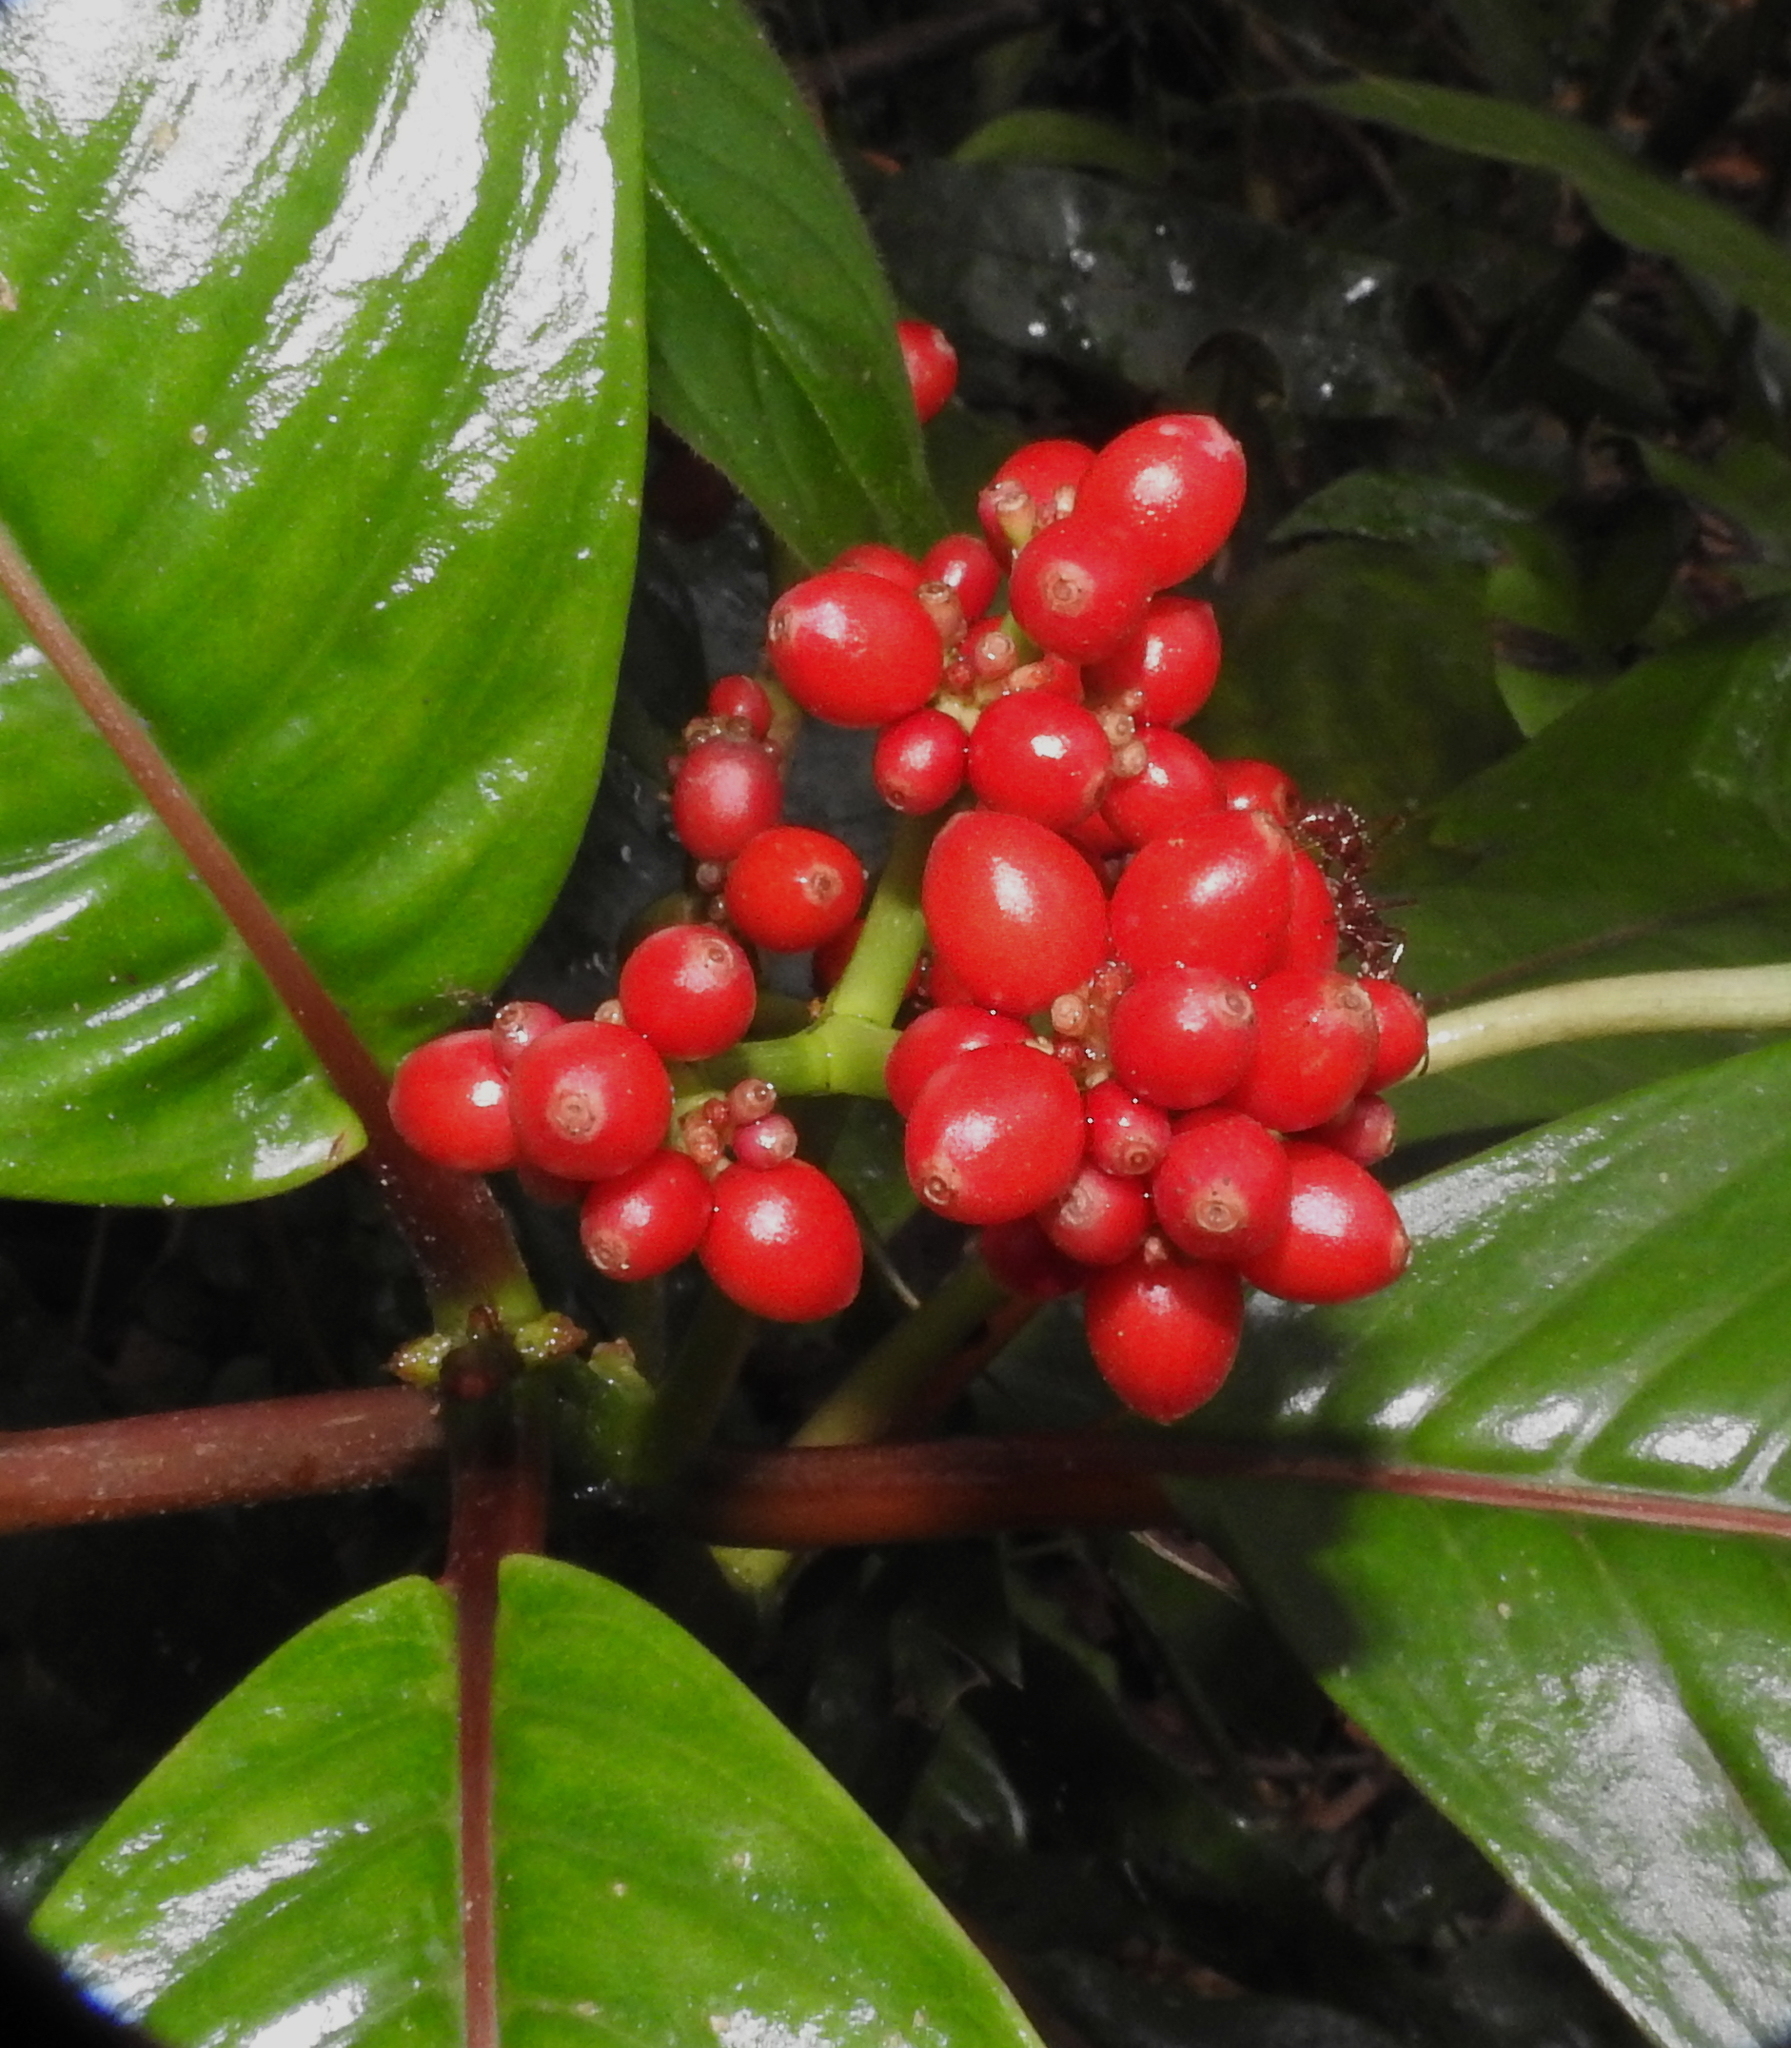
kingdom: Plantae
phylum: Tracheophyta
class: Magnoliopsida
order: Gentianales
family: Rubiaceae
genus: Notopleura
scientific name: Notopleura uliginosa
